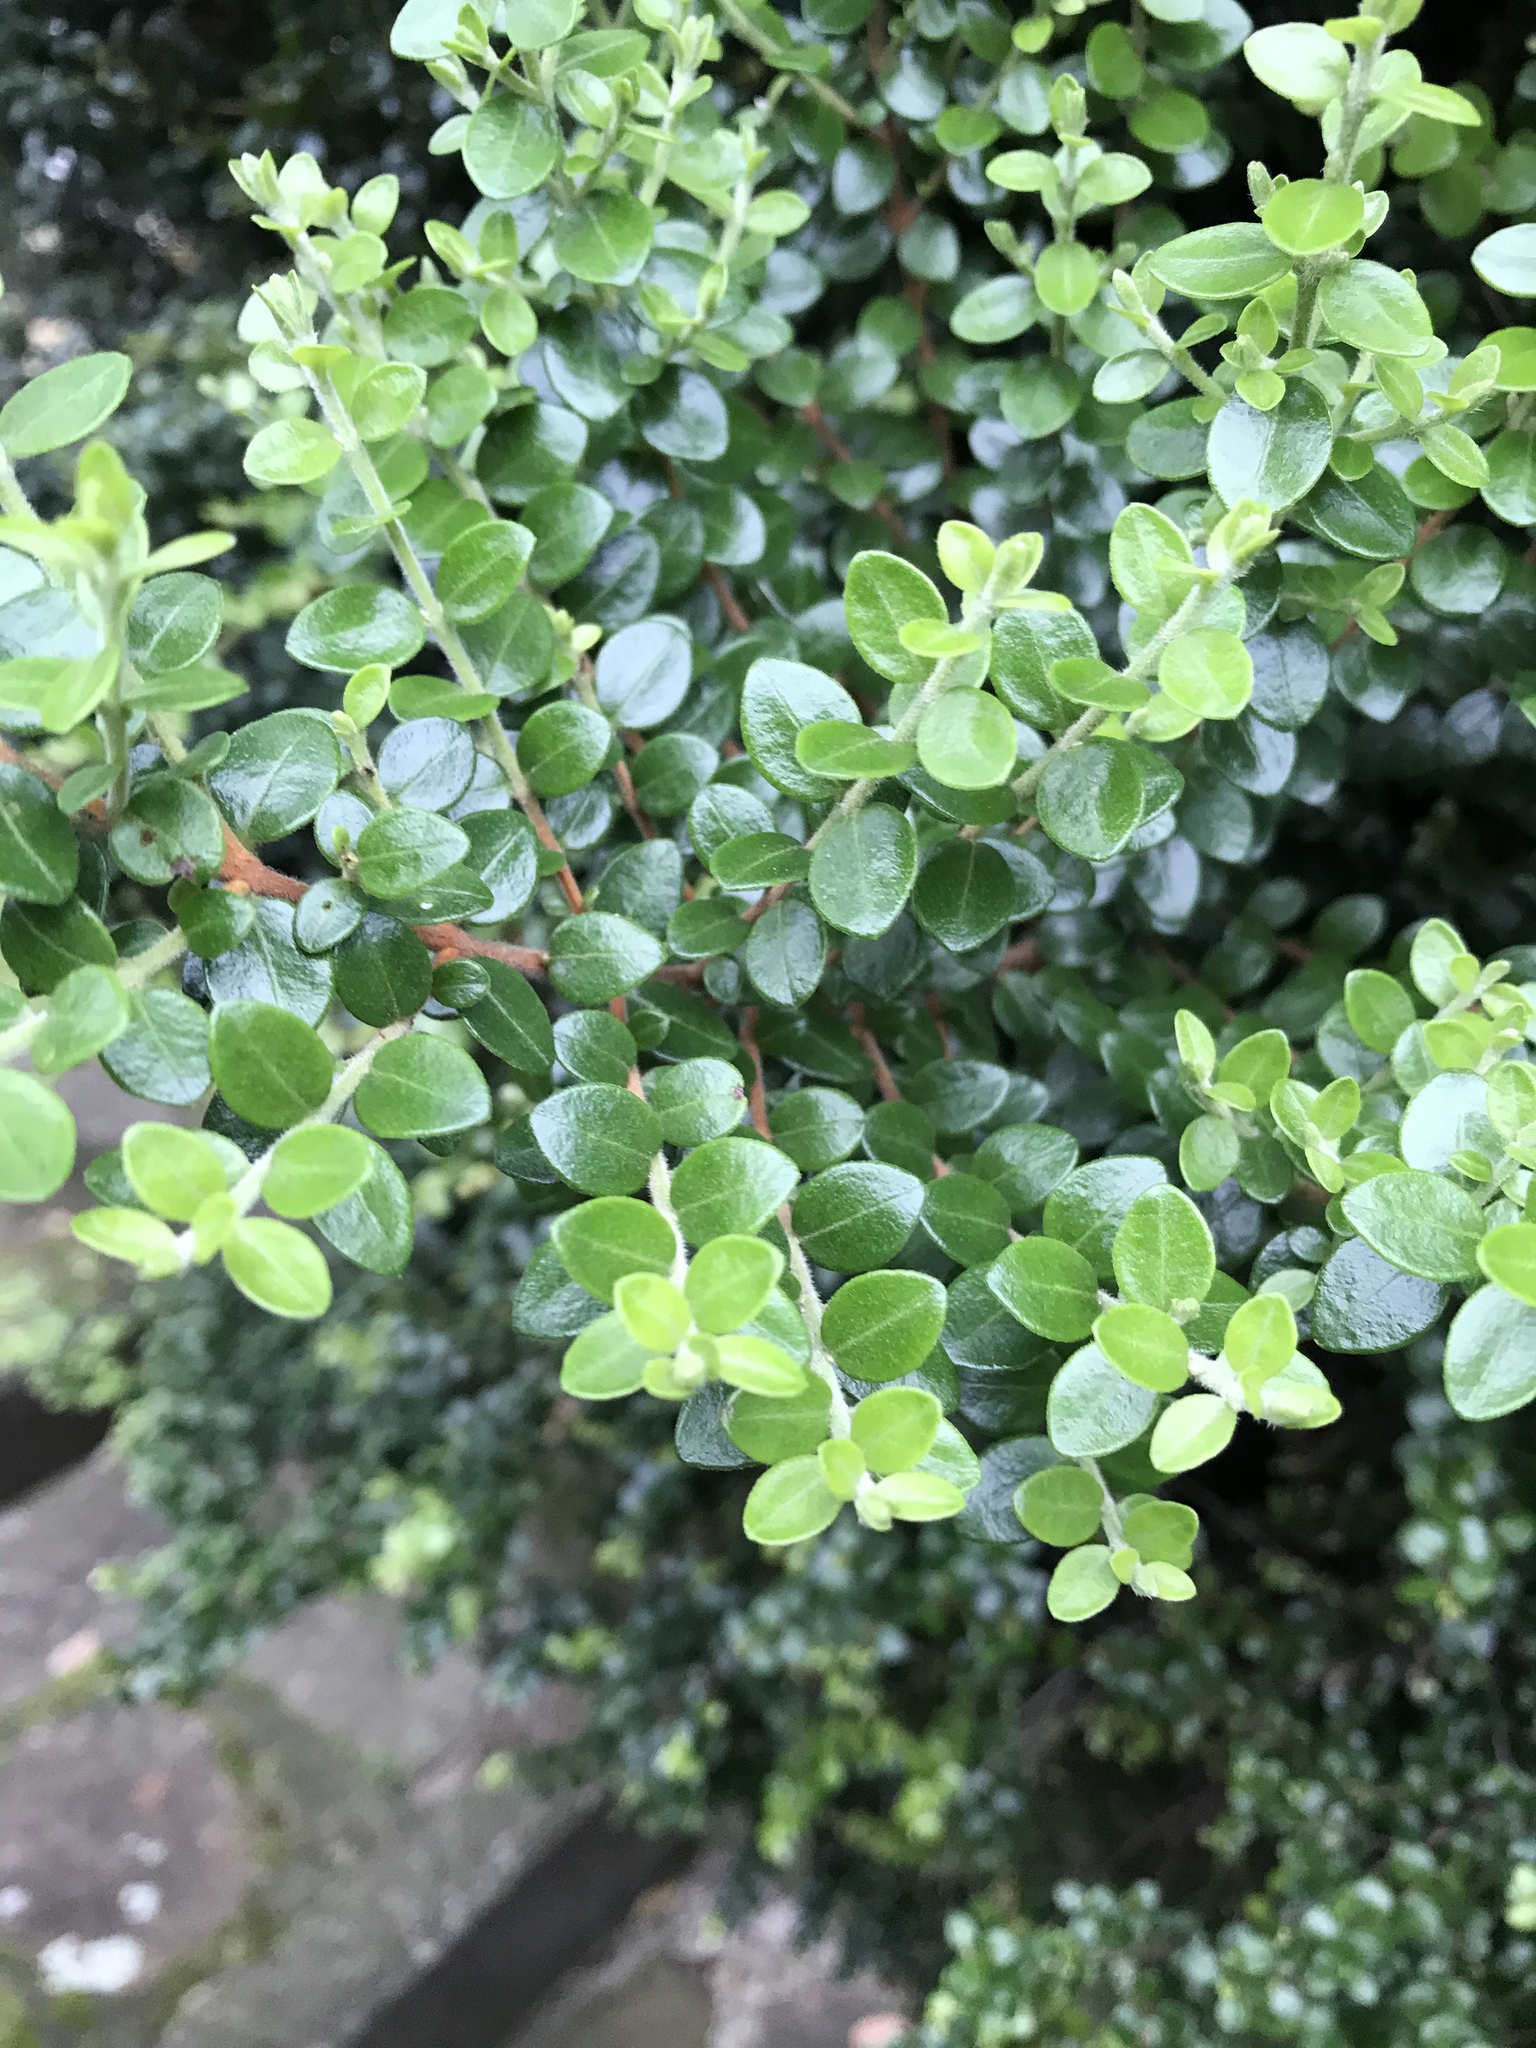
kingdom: Plantae
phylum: Tracheophyta
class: Magnoliopsida
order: Myrtales
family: Myrtaceae
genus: Metrosideros
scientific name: Metrosideros perforata
